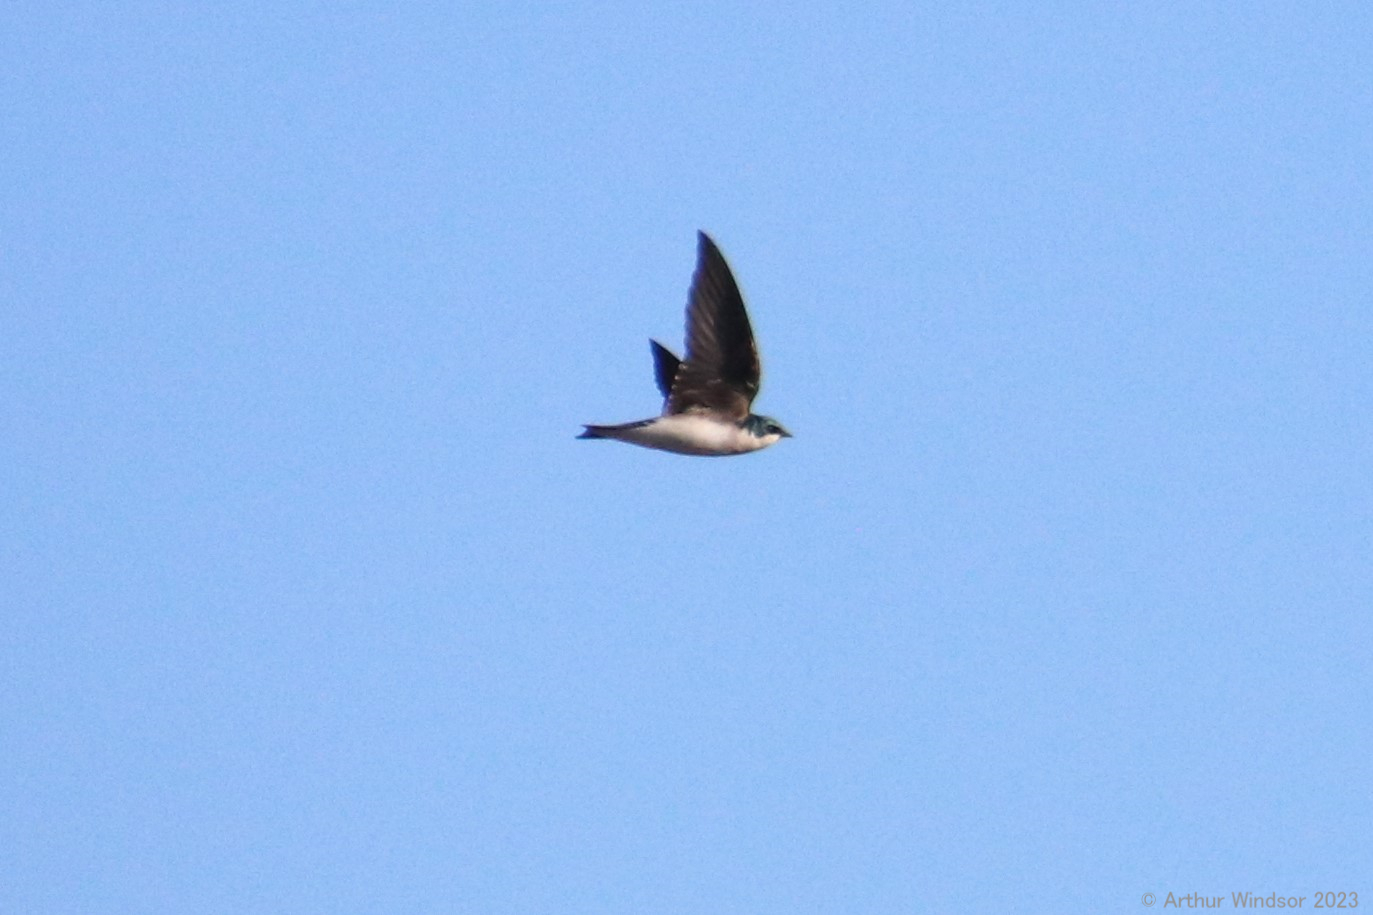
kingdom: Animalia
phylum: Chordata
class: Aves
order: Passeriformes
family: Hirundinidae
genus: Tachycineta
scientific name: Tachycineta bicolor
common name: Tree swallow
